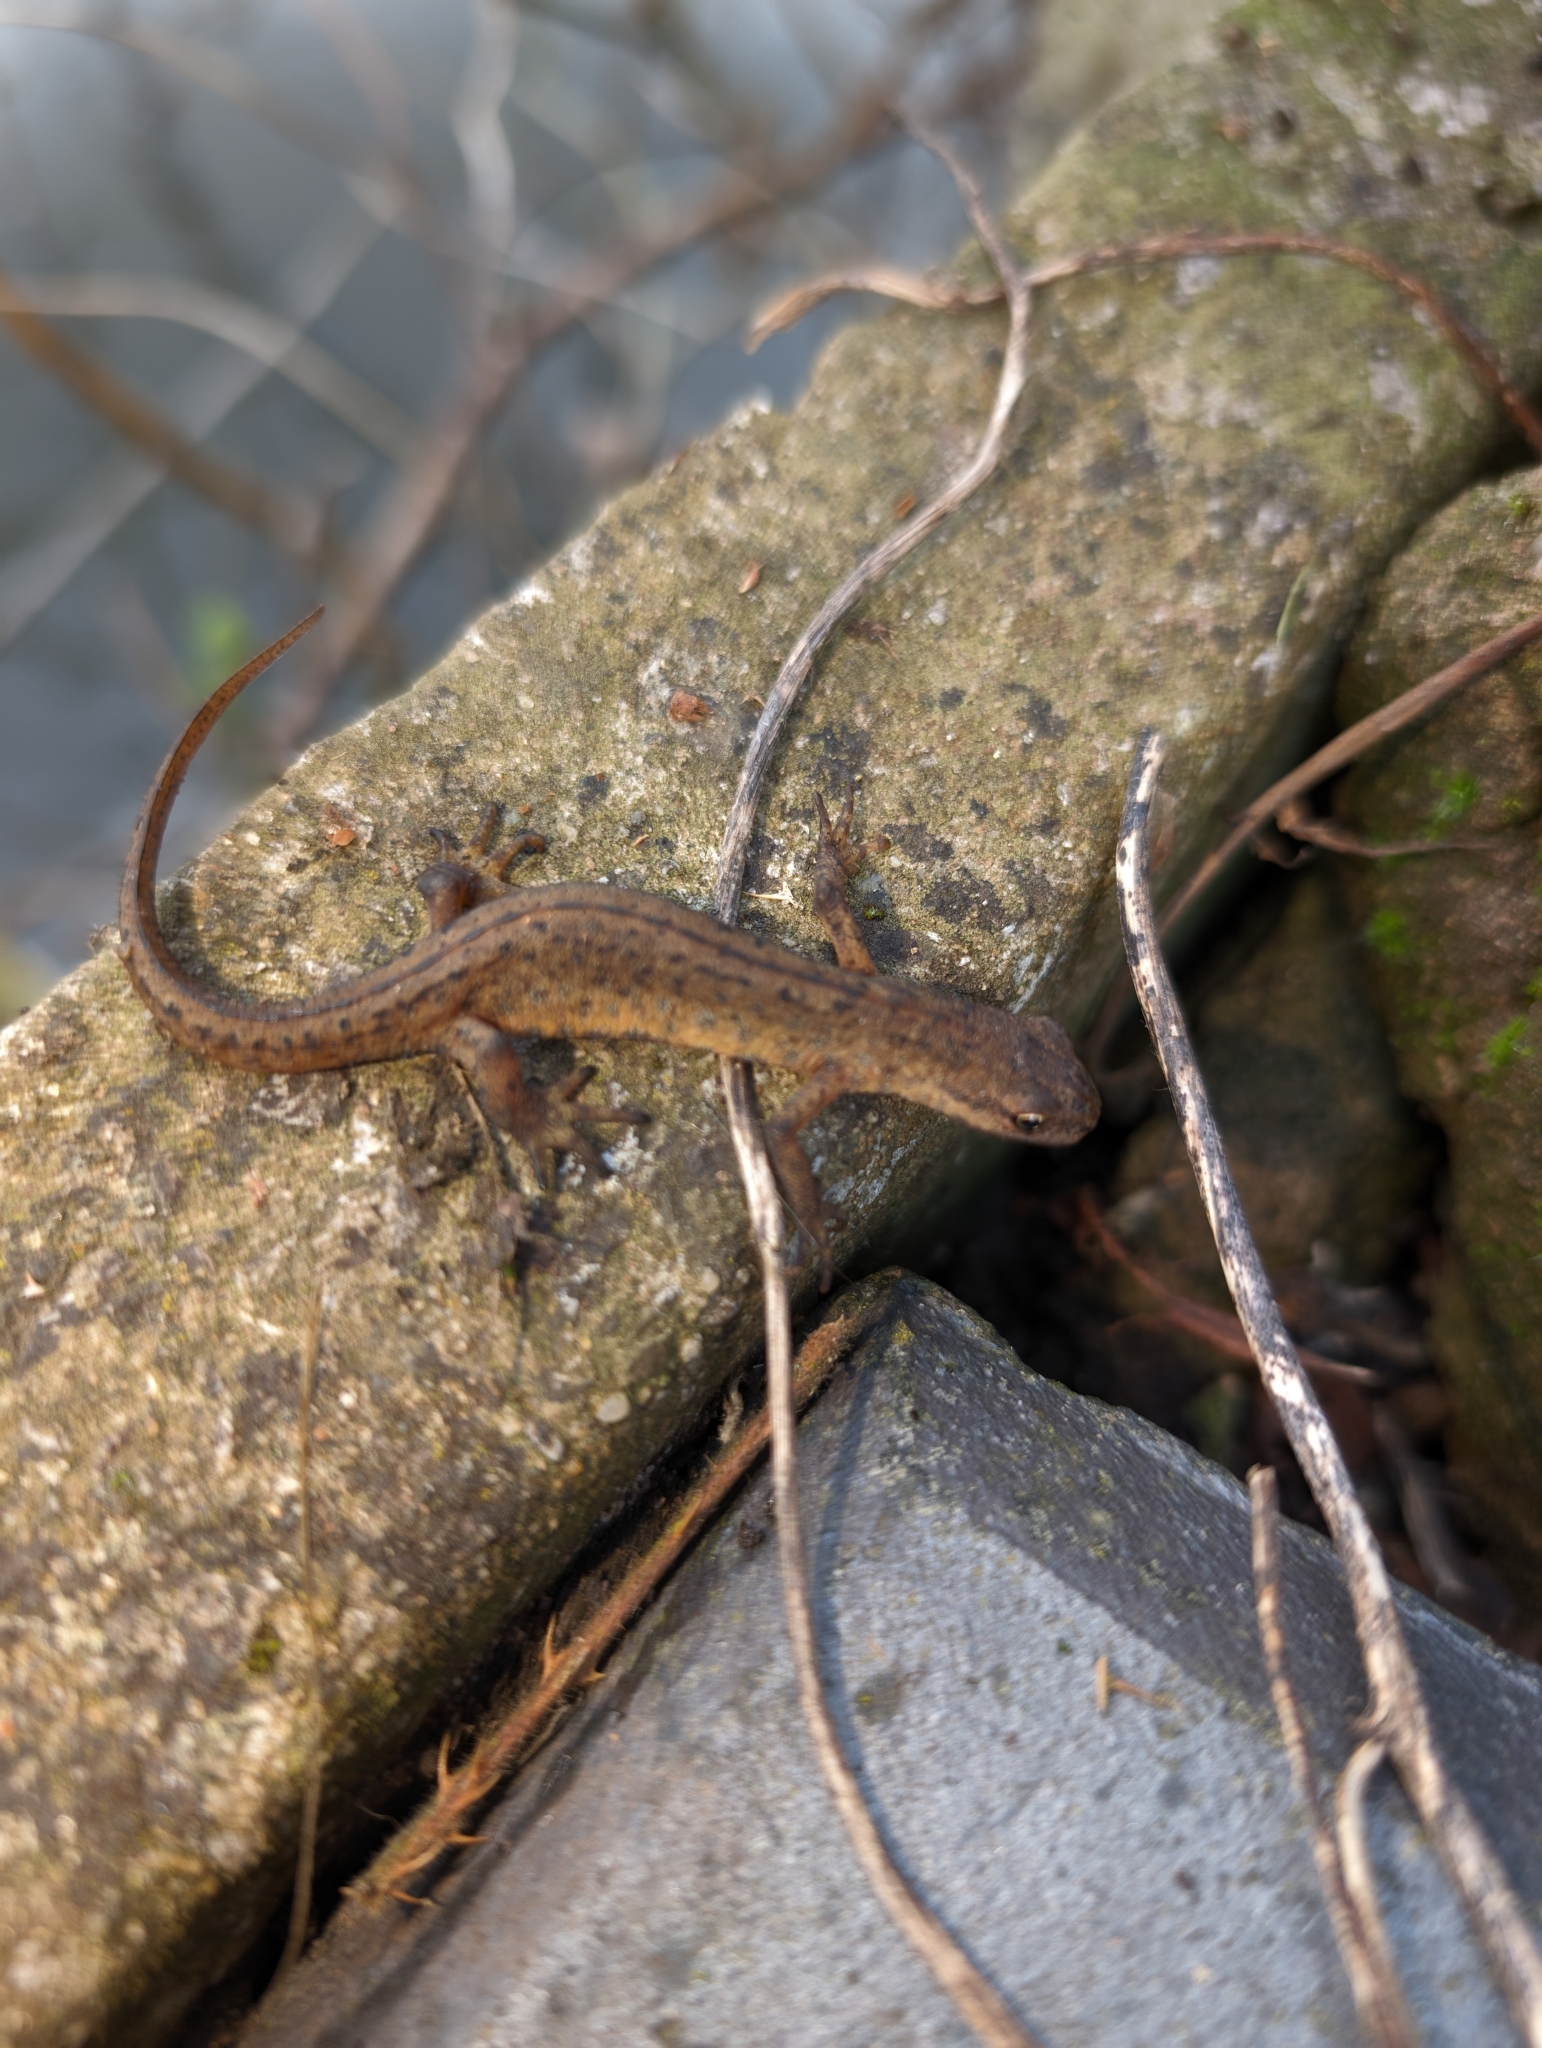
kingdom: Animalia
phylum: Chordata
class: Amphibia
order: Caudata
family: Salamandridae
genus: Lissotriton
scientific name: Lissotriton vulgaris
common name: Smooth newt
